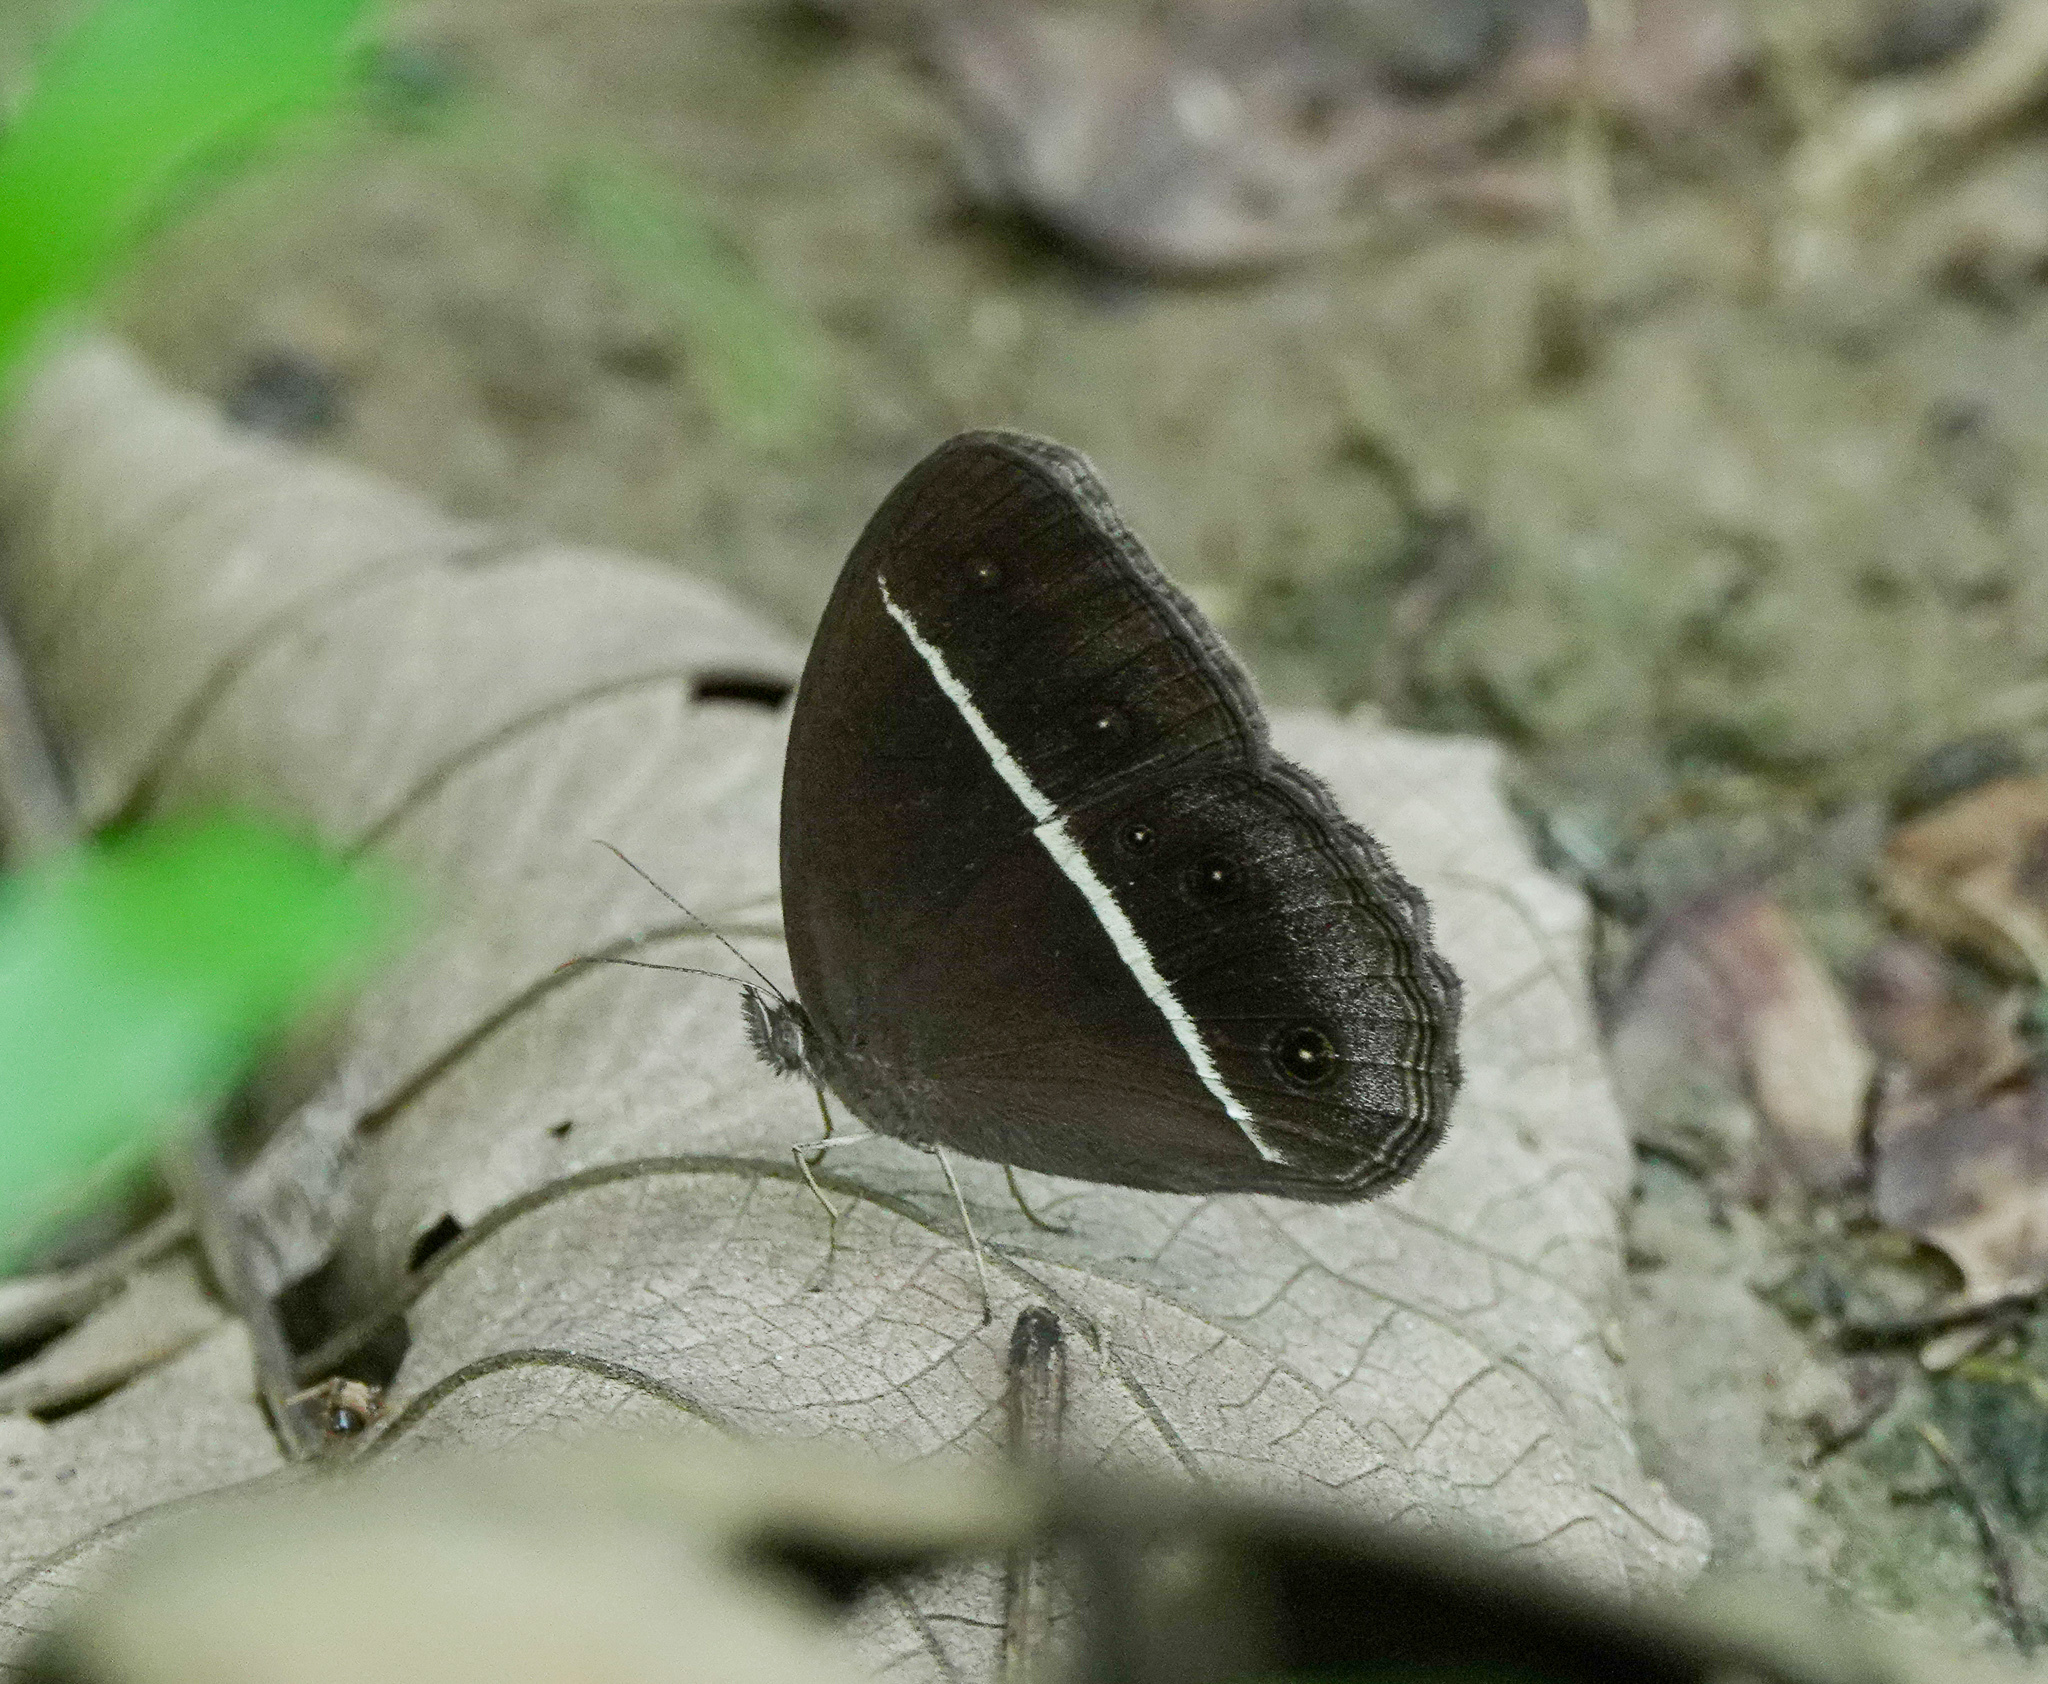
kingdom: Animalia
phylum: Arthropoda
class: Insecta
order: Lepidoptera
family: Nymphalidae
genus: Orsotriaena
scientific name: Orsotriaena medus
